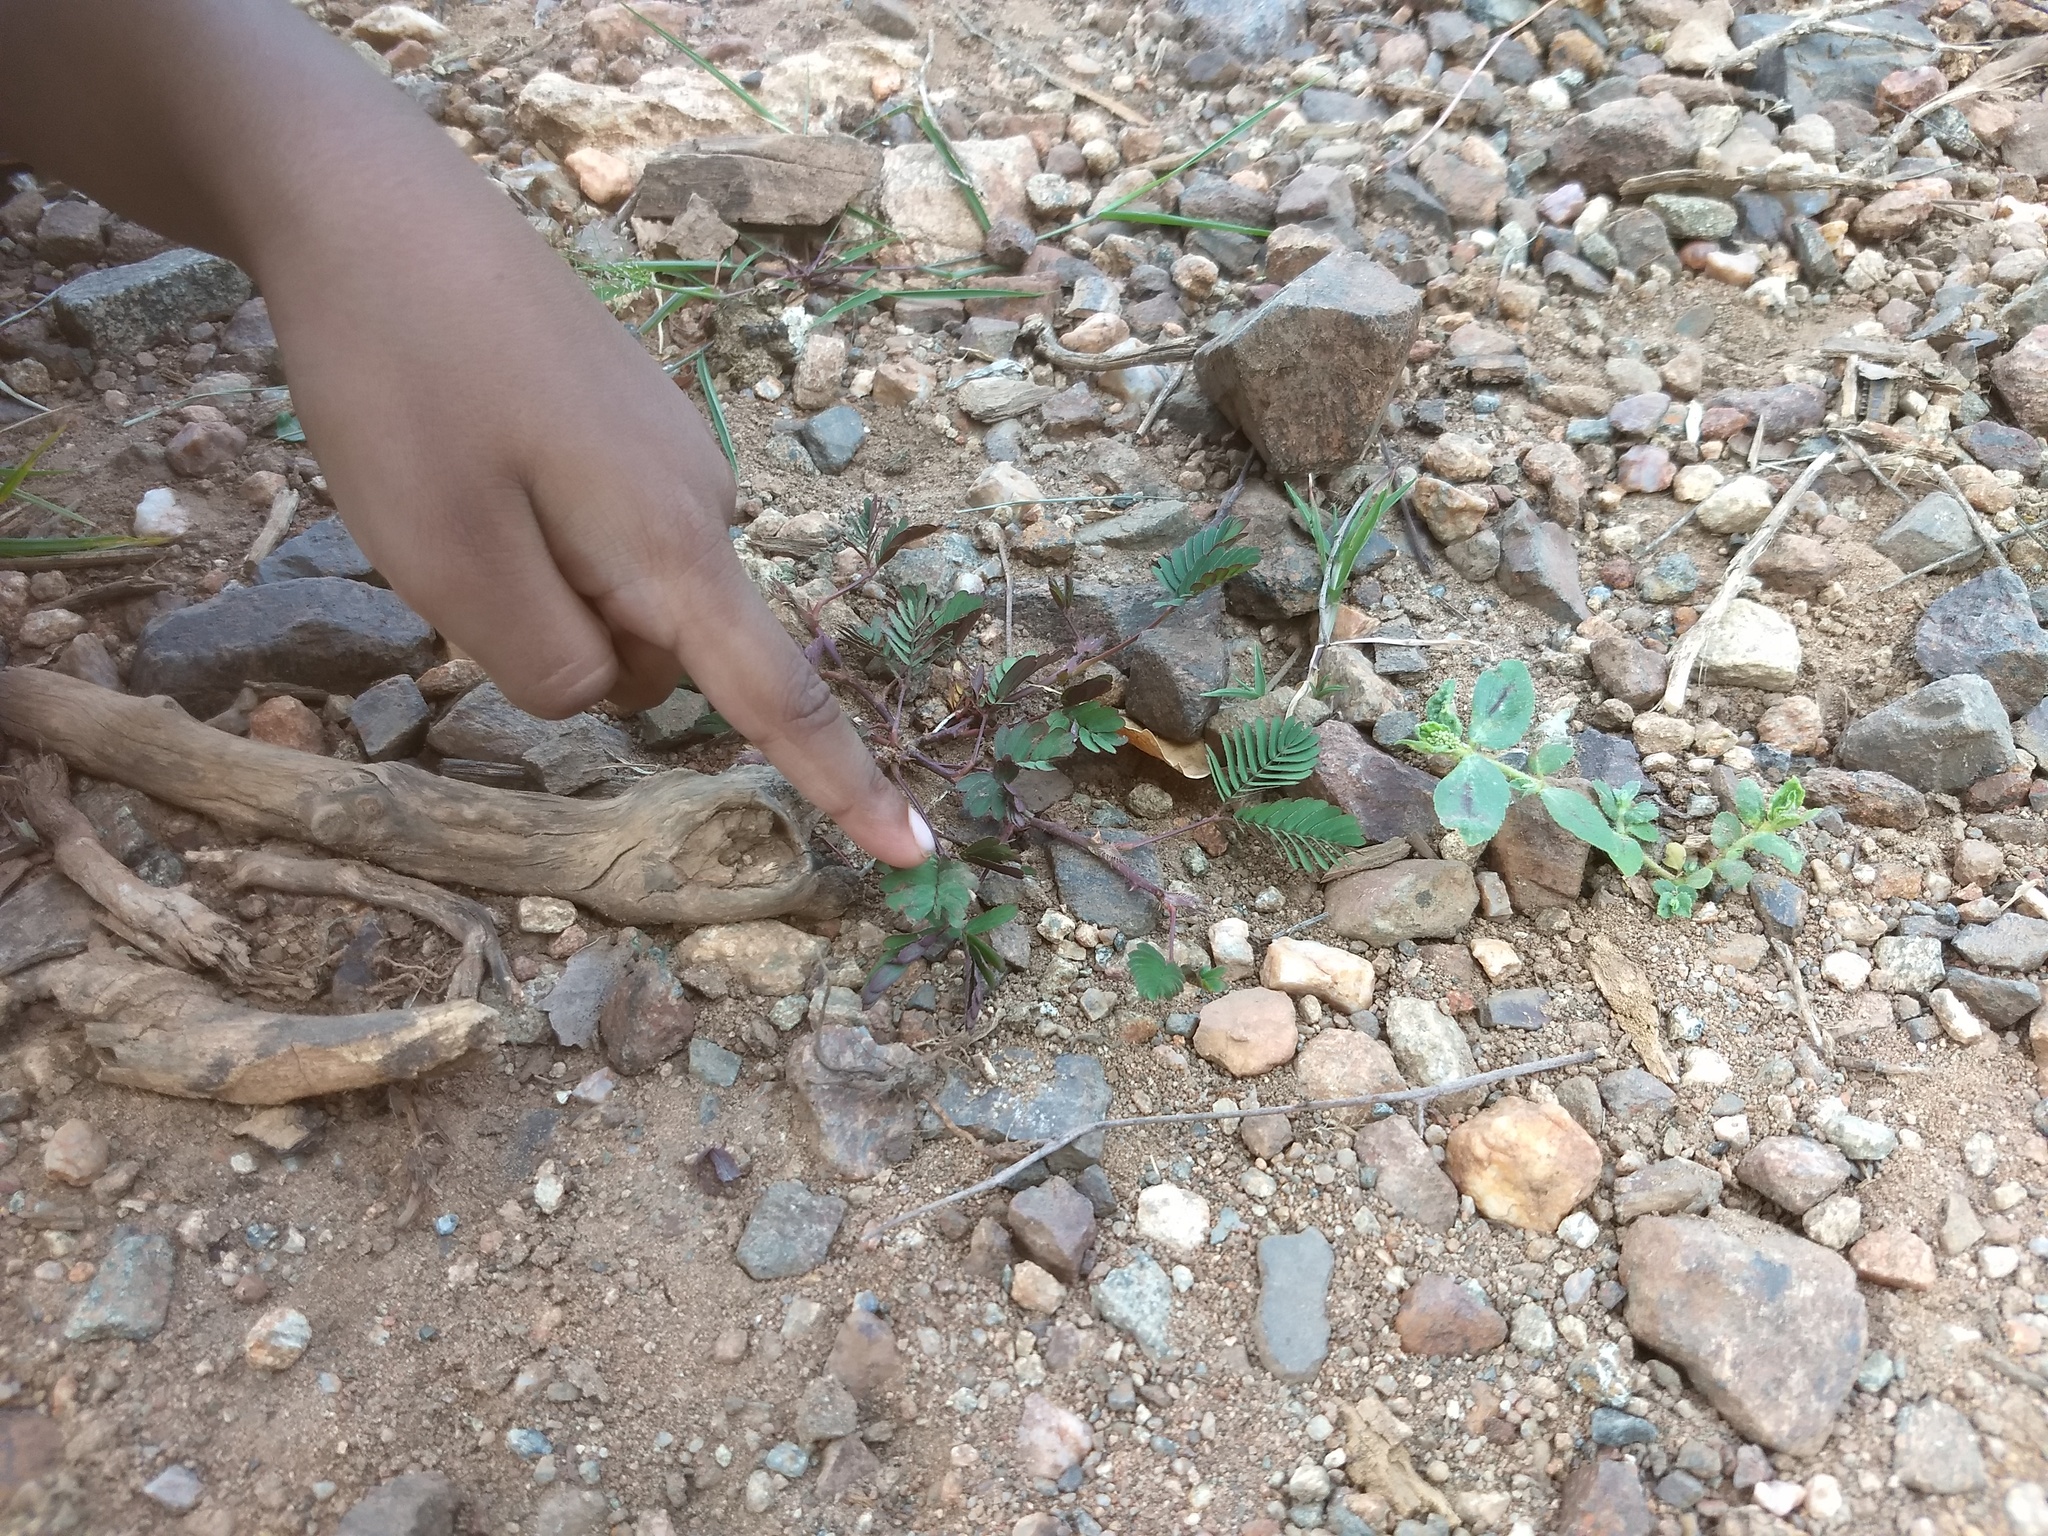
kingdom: Plantae
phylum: Tracheophyta
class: Magnoliopsida
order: Fabales
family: Fabaceae
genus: Mimosa
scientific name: Mimosa pudica
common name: Sensitive plant
